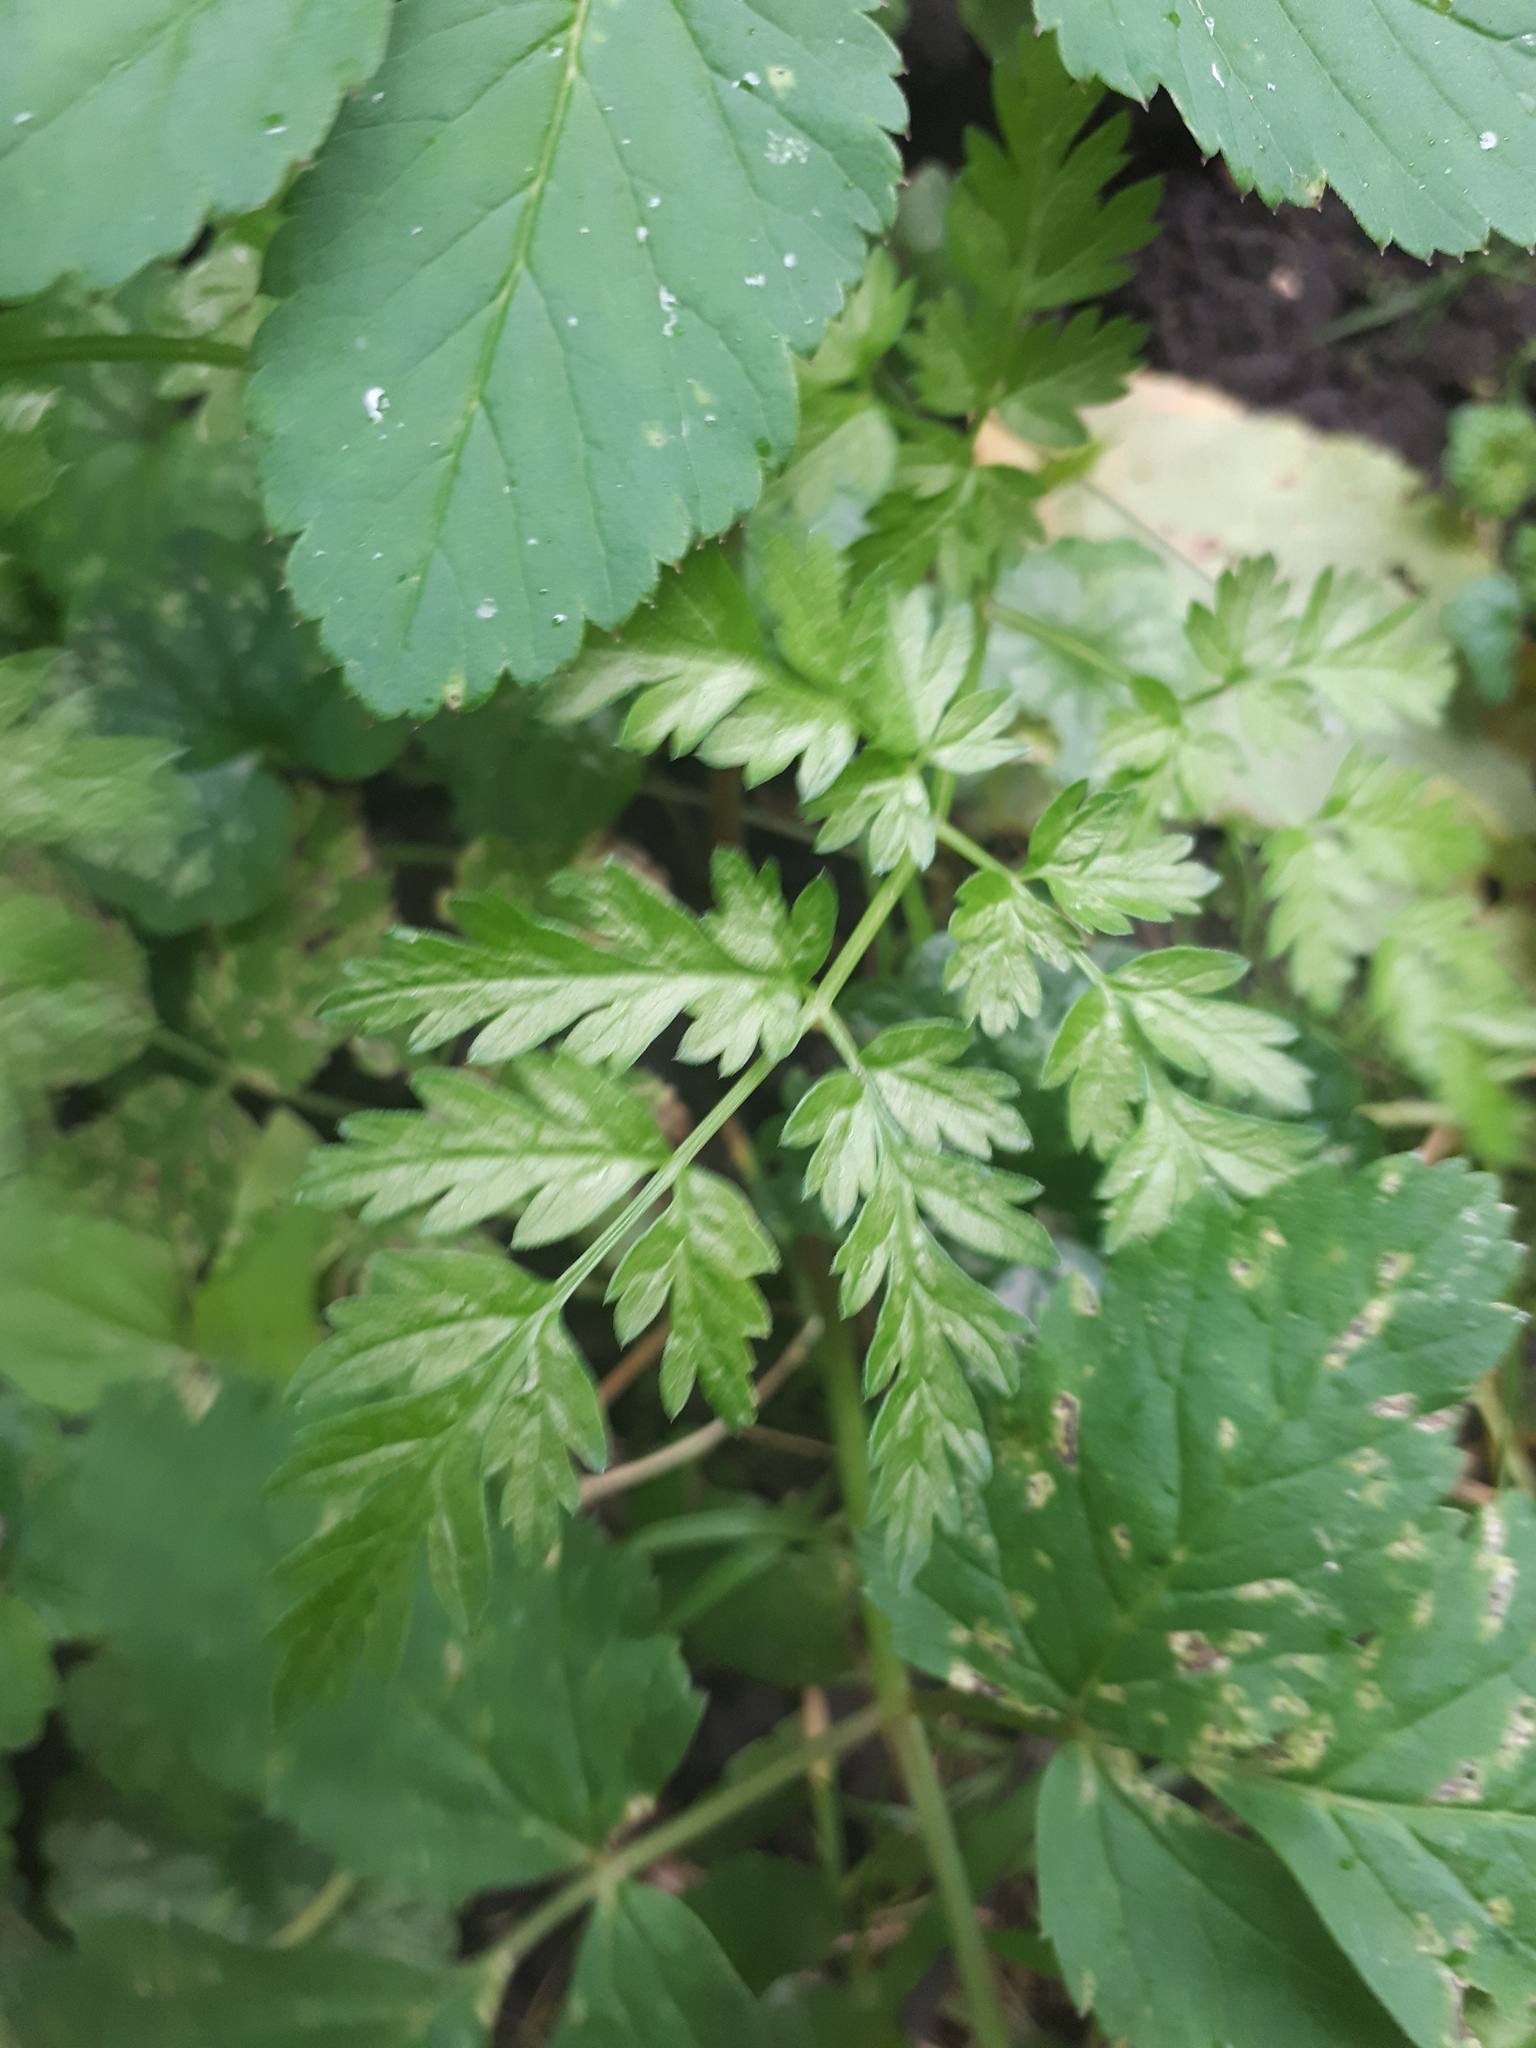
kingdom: Plantae
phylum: Tracheophyta
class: Magnoliopsida
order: Apiales
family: Apiaceae
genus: Anthriscus
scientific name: Anthriscus sylvestris
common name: Cow parsley
